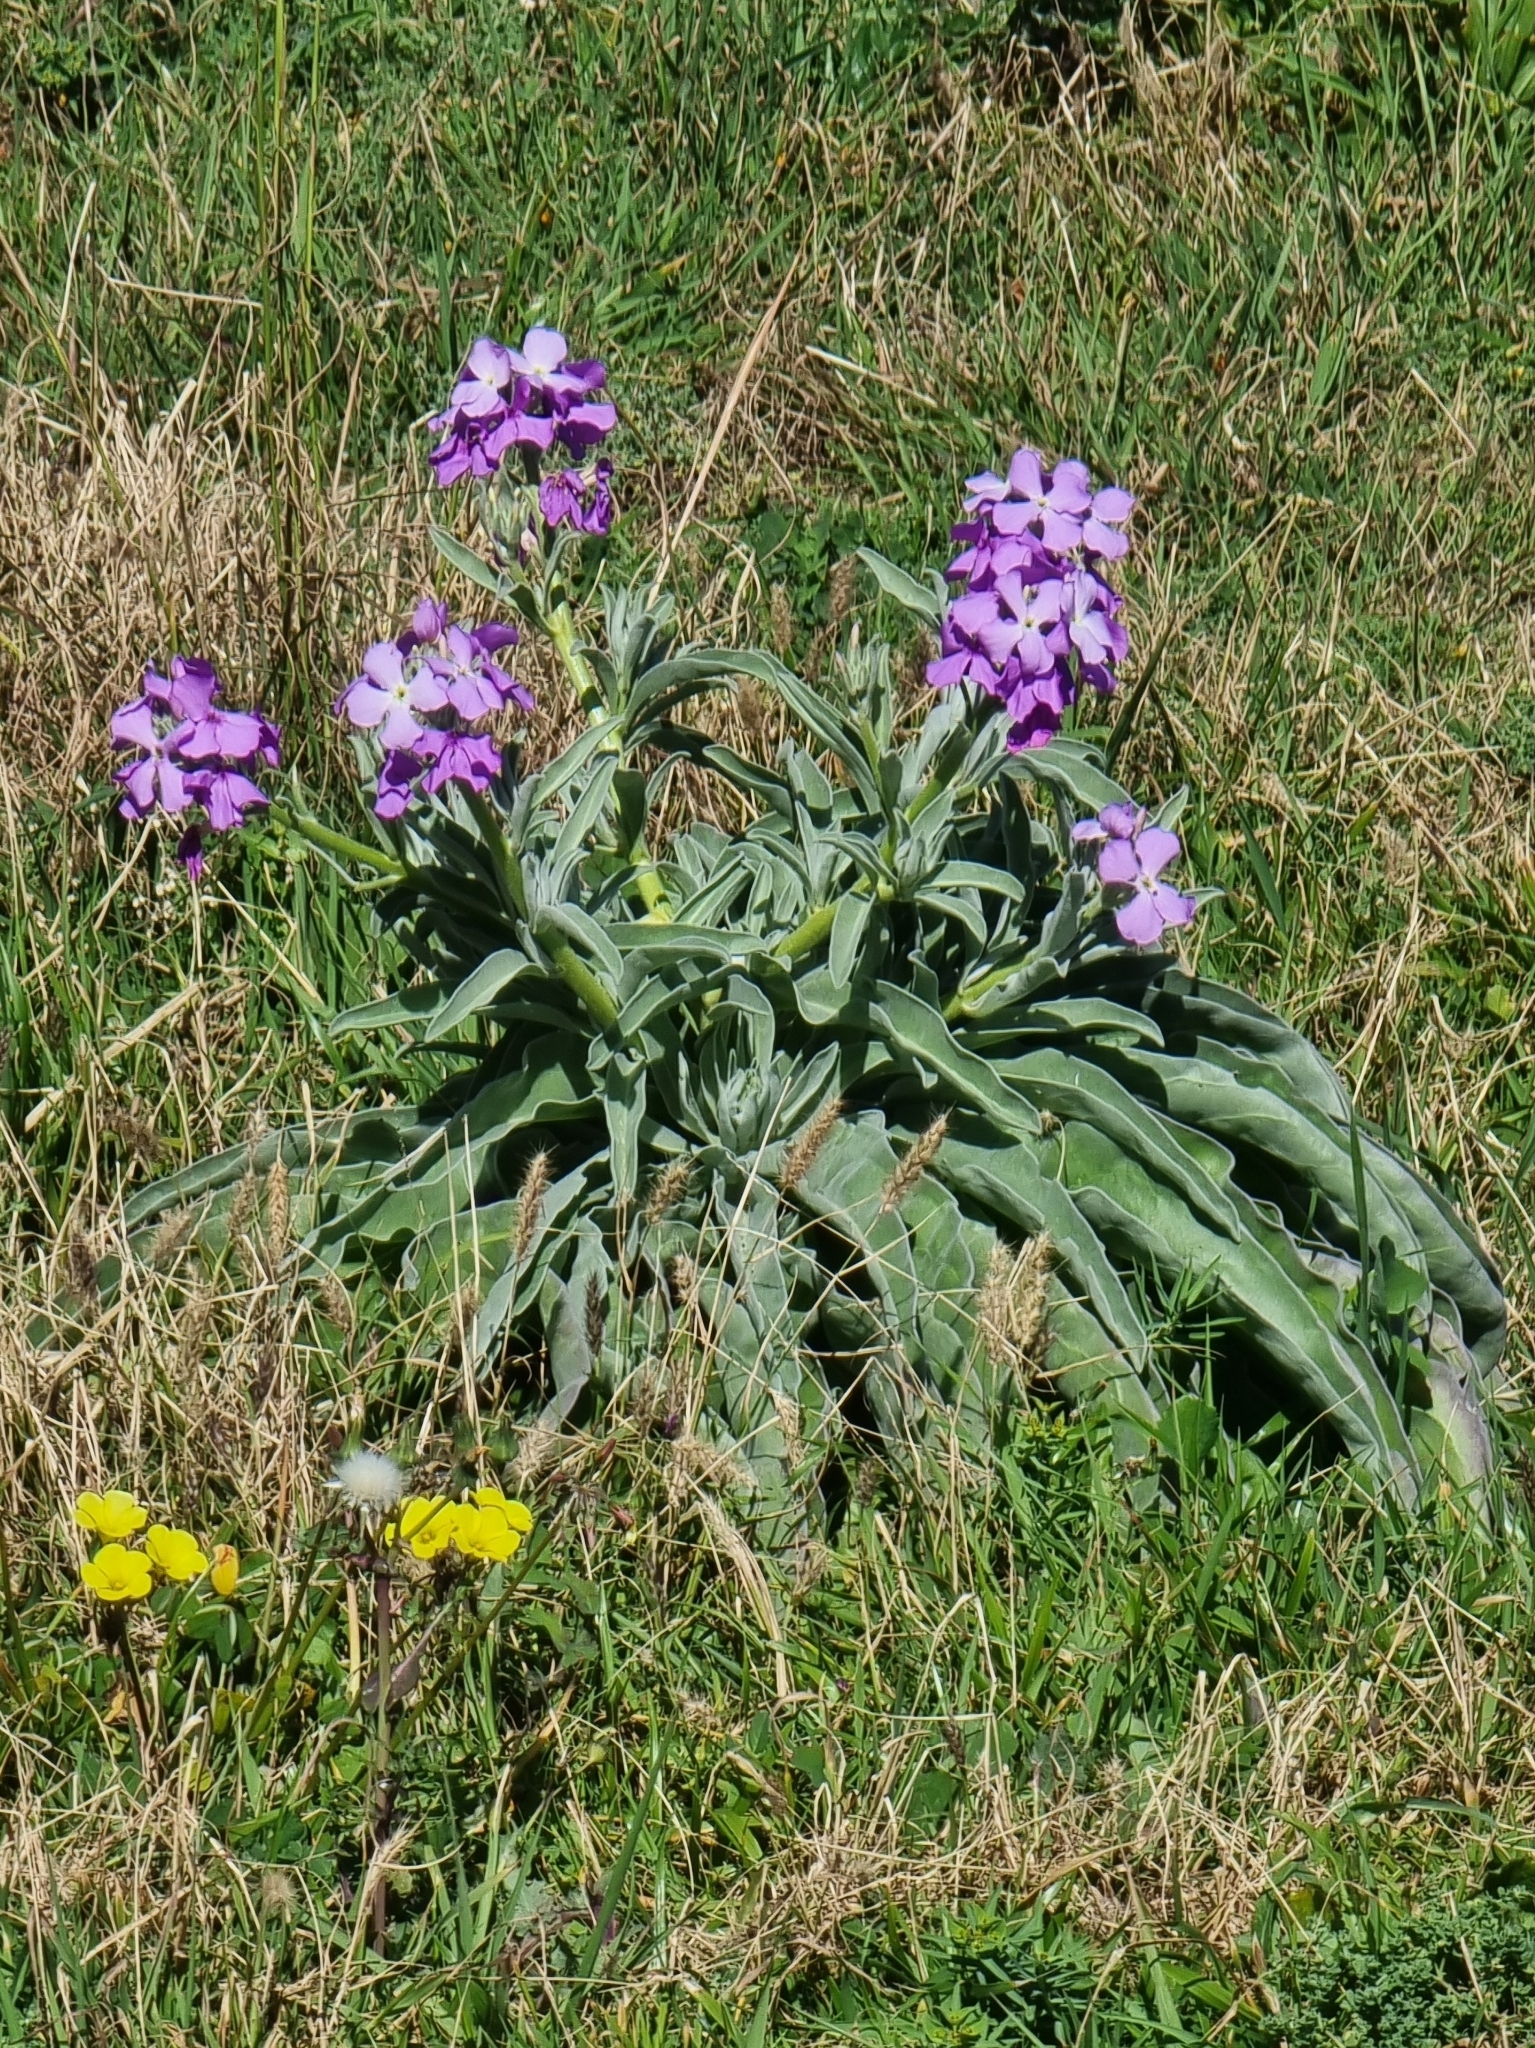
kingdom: Plantae
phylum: Tracheophyta
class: Magnoliopsida
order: Brassicales
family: Brassicaceae
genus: Matthiola
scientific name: Matthiola maderensis
